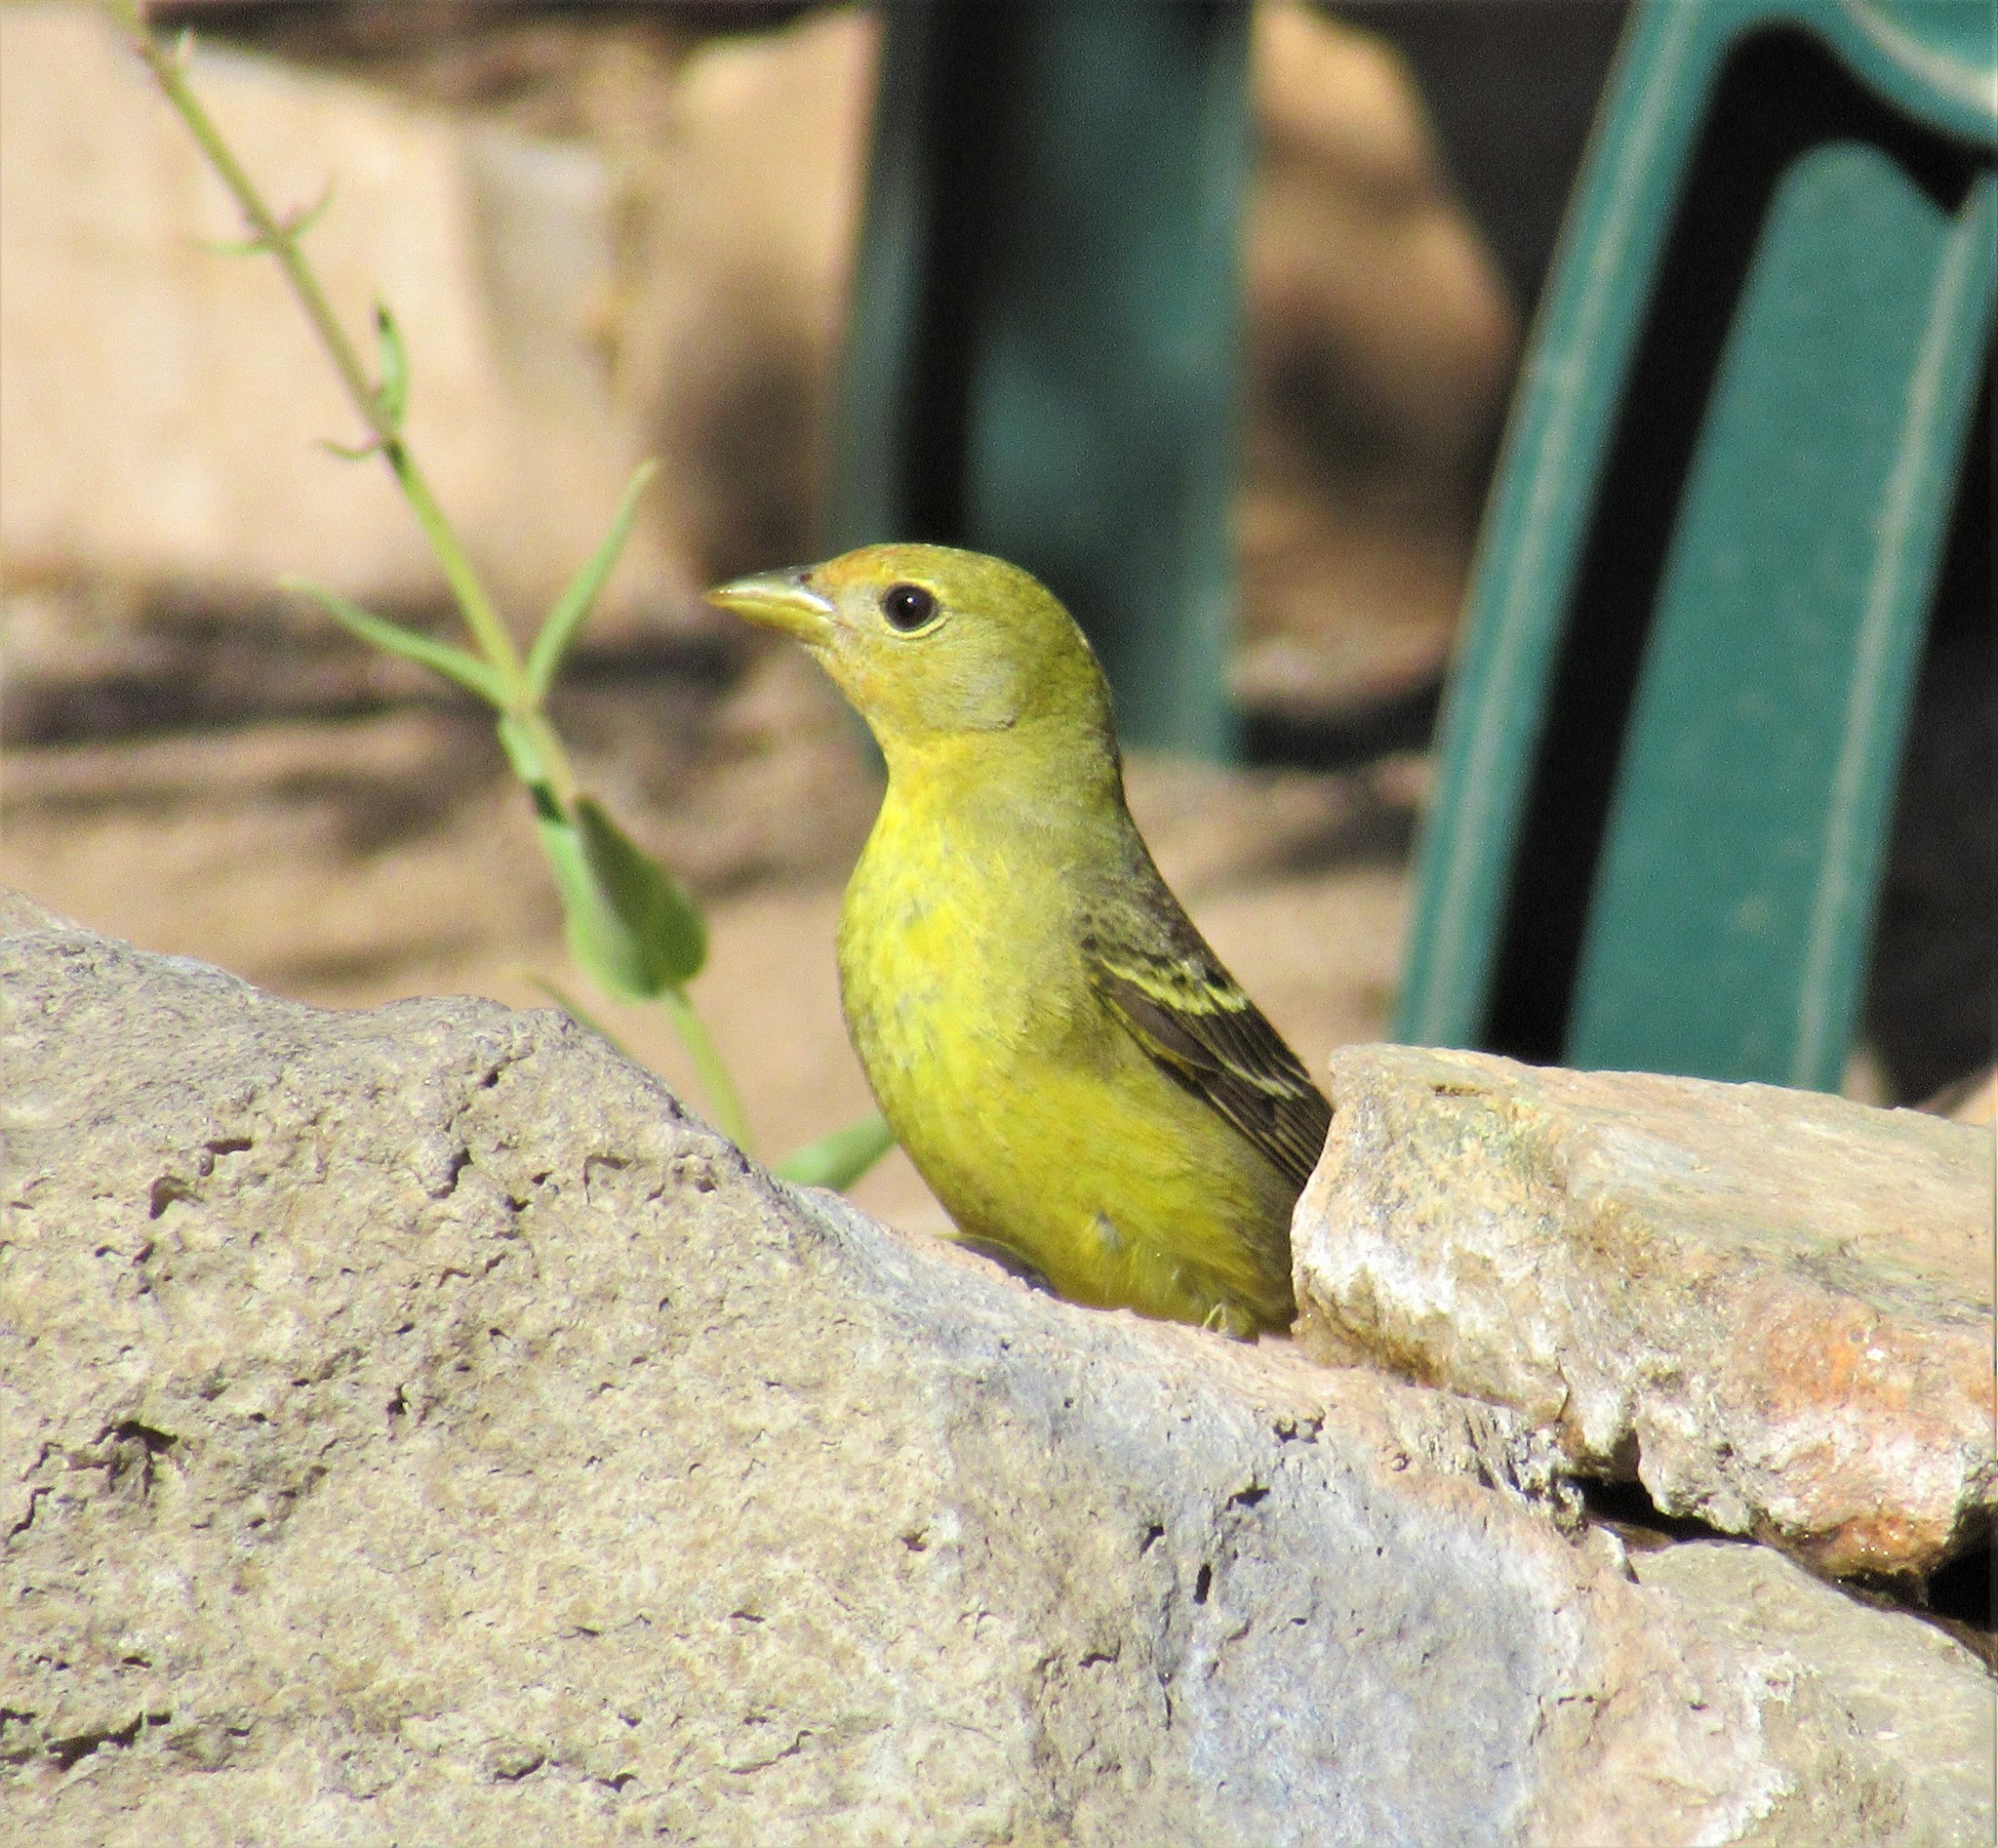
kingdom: Animalia
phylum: Chordata
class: Aves
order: Passeriformes
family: Cardinalidae
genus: Piranga
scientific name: Piranga ludoviciana
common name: Western tanager
